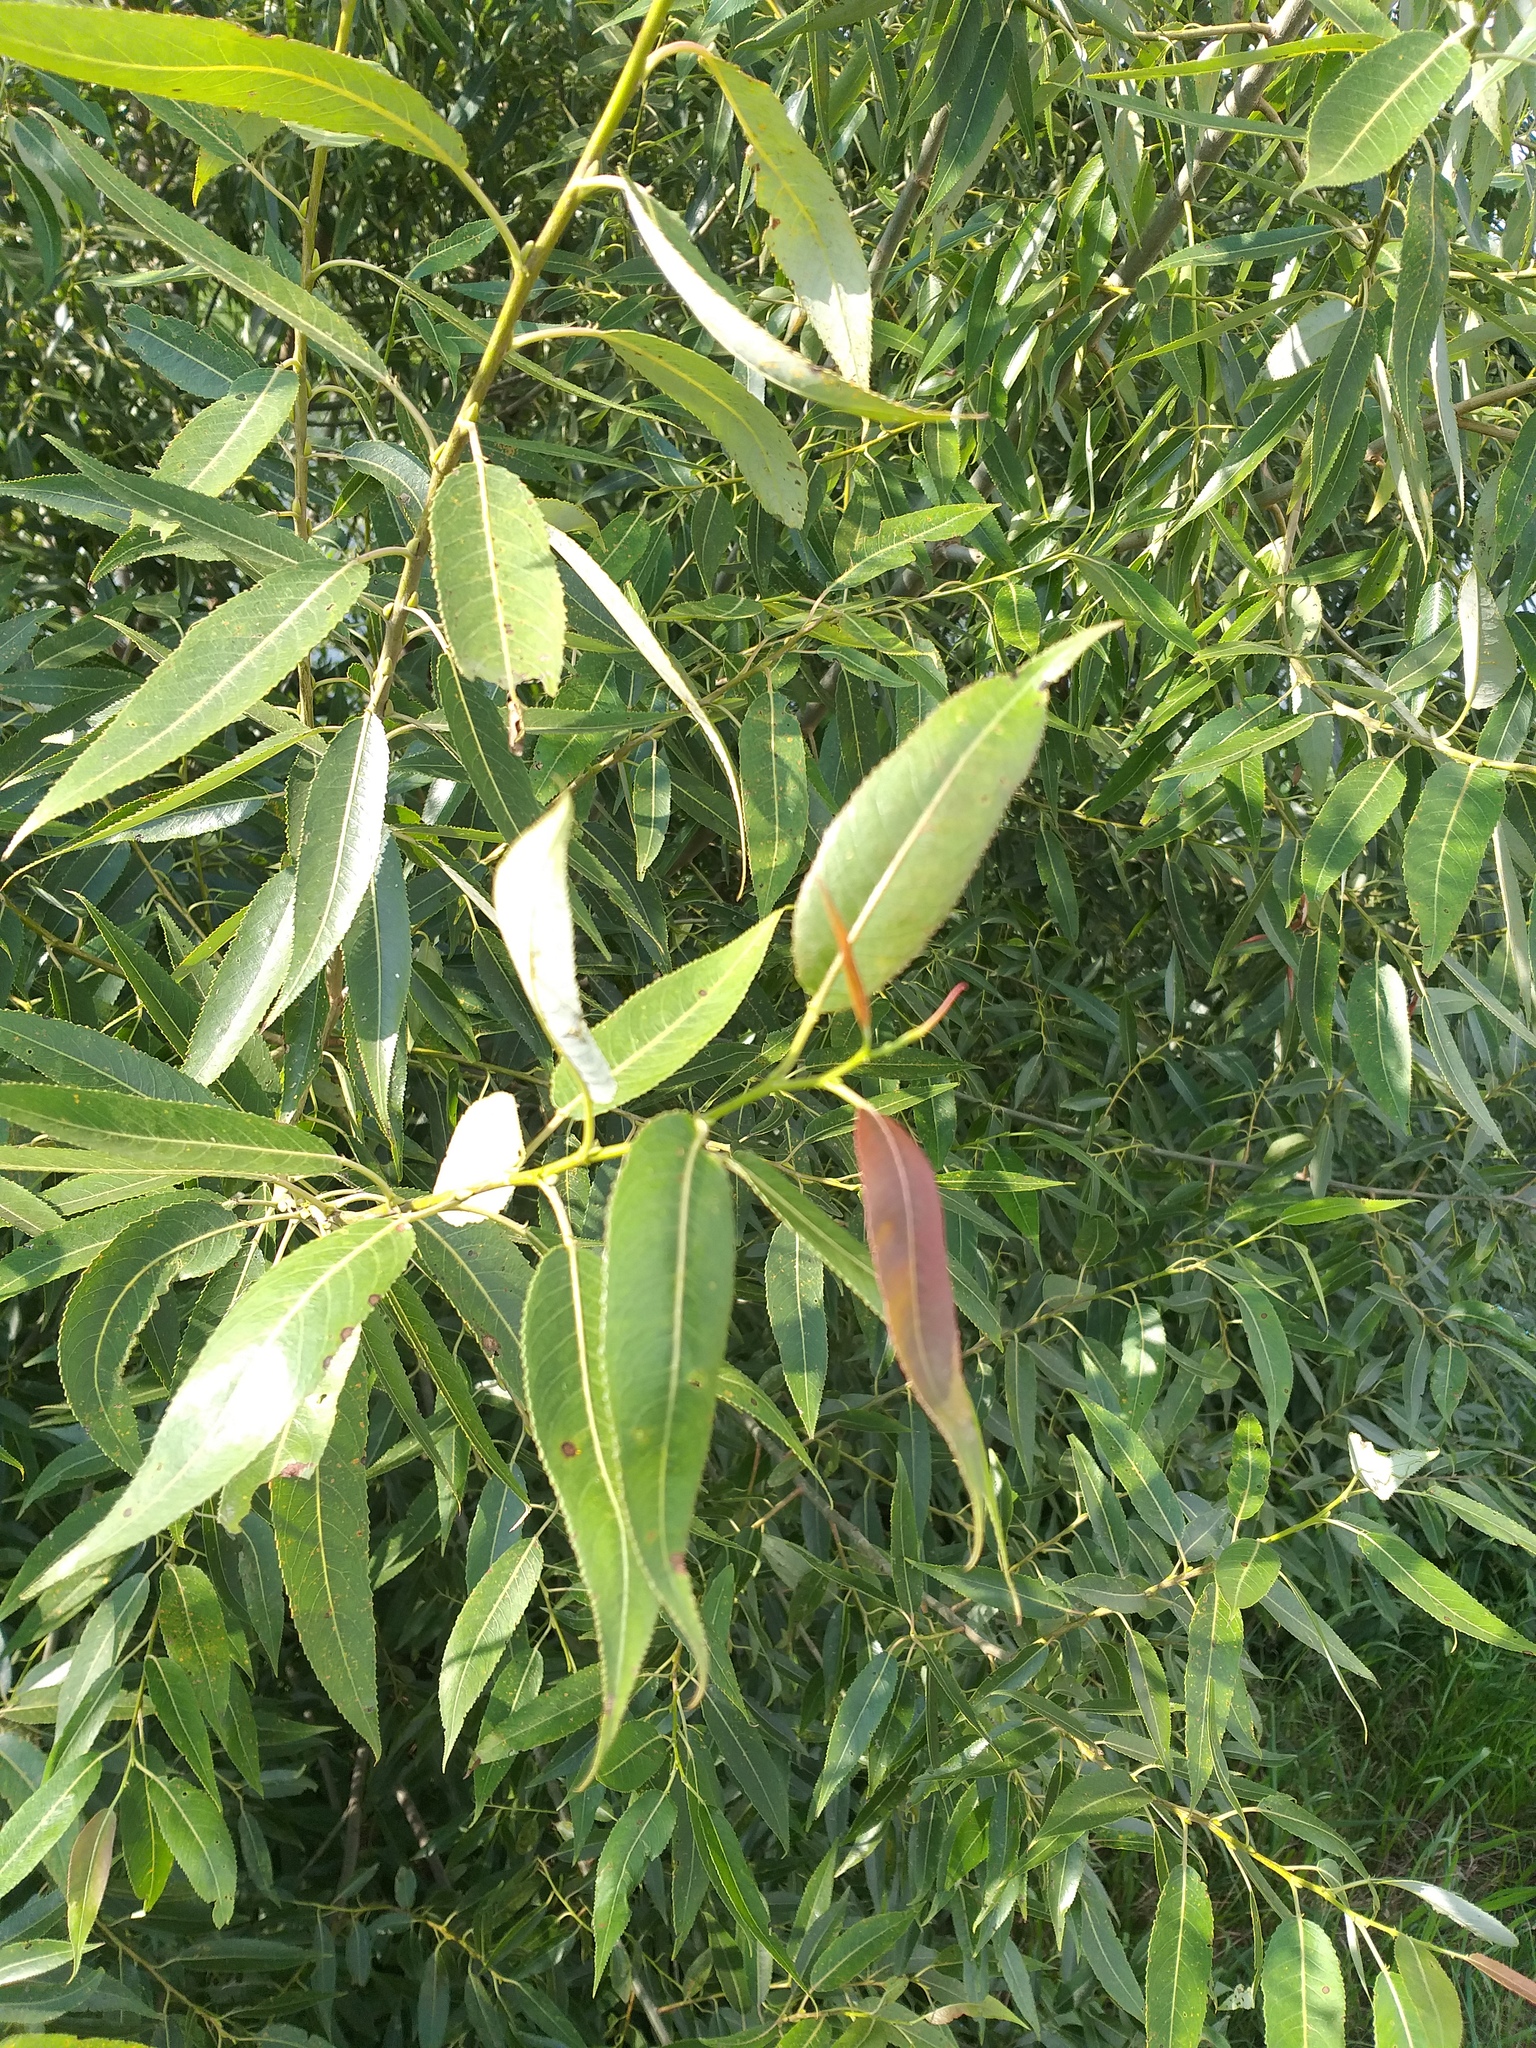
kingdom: Plantae
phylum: Tracheophyta
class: Magnoliopsida
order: Malpighiales
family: Salicaceae
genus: Salix
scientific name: Salix triandra
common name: Almond willow
